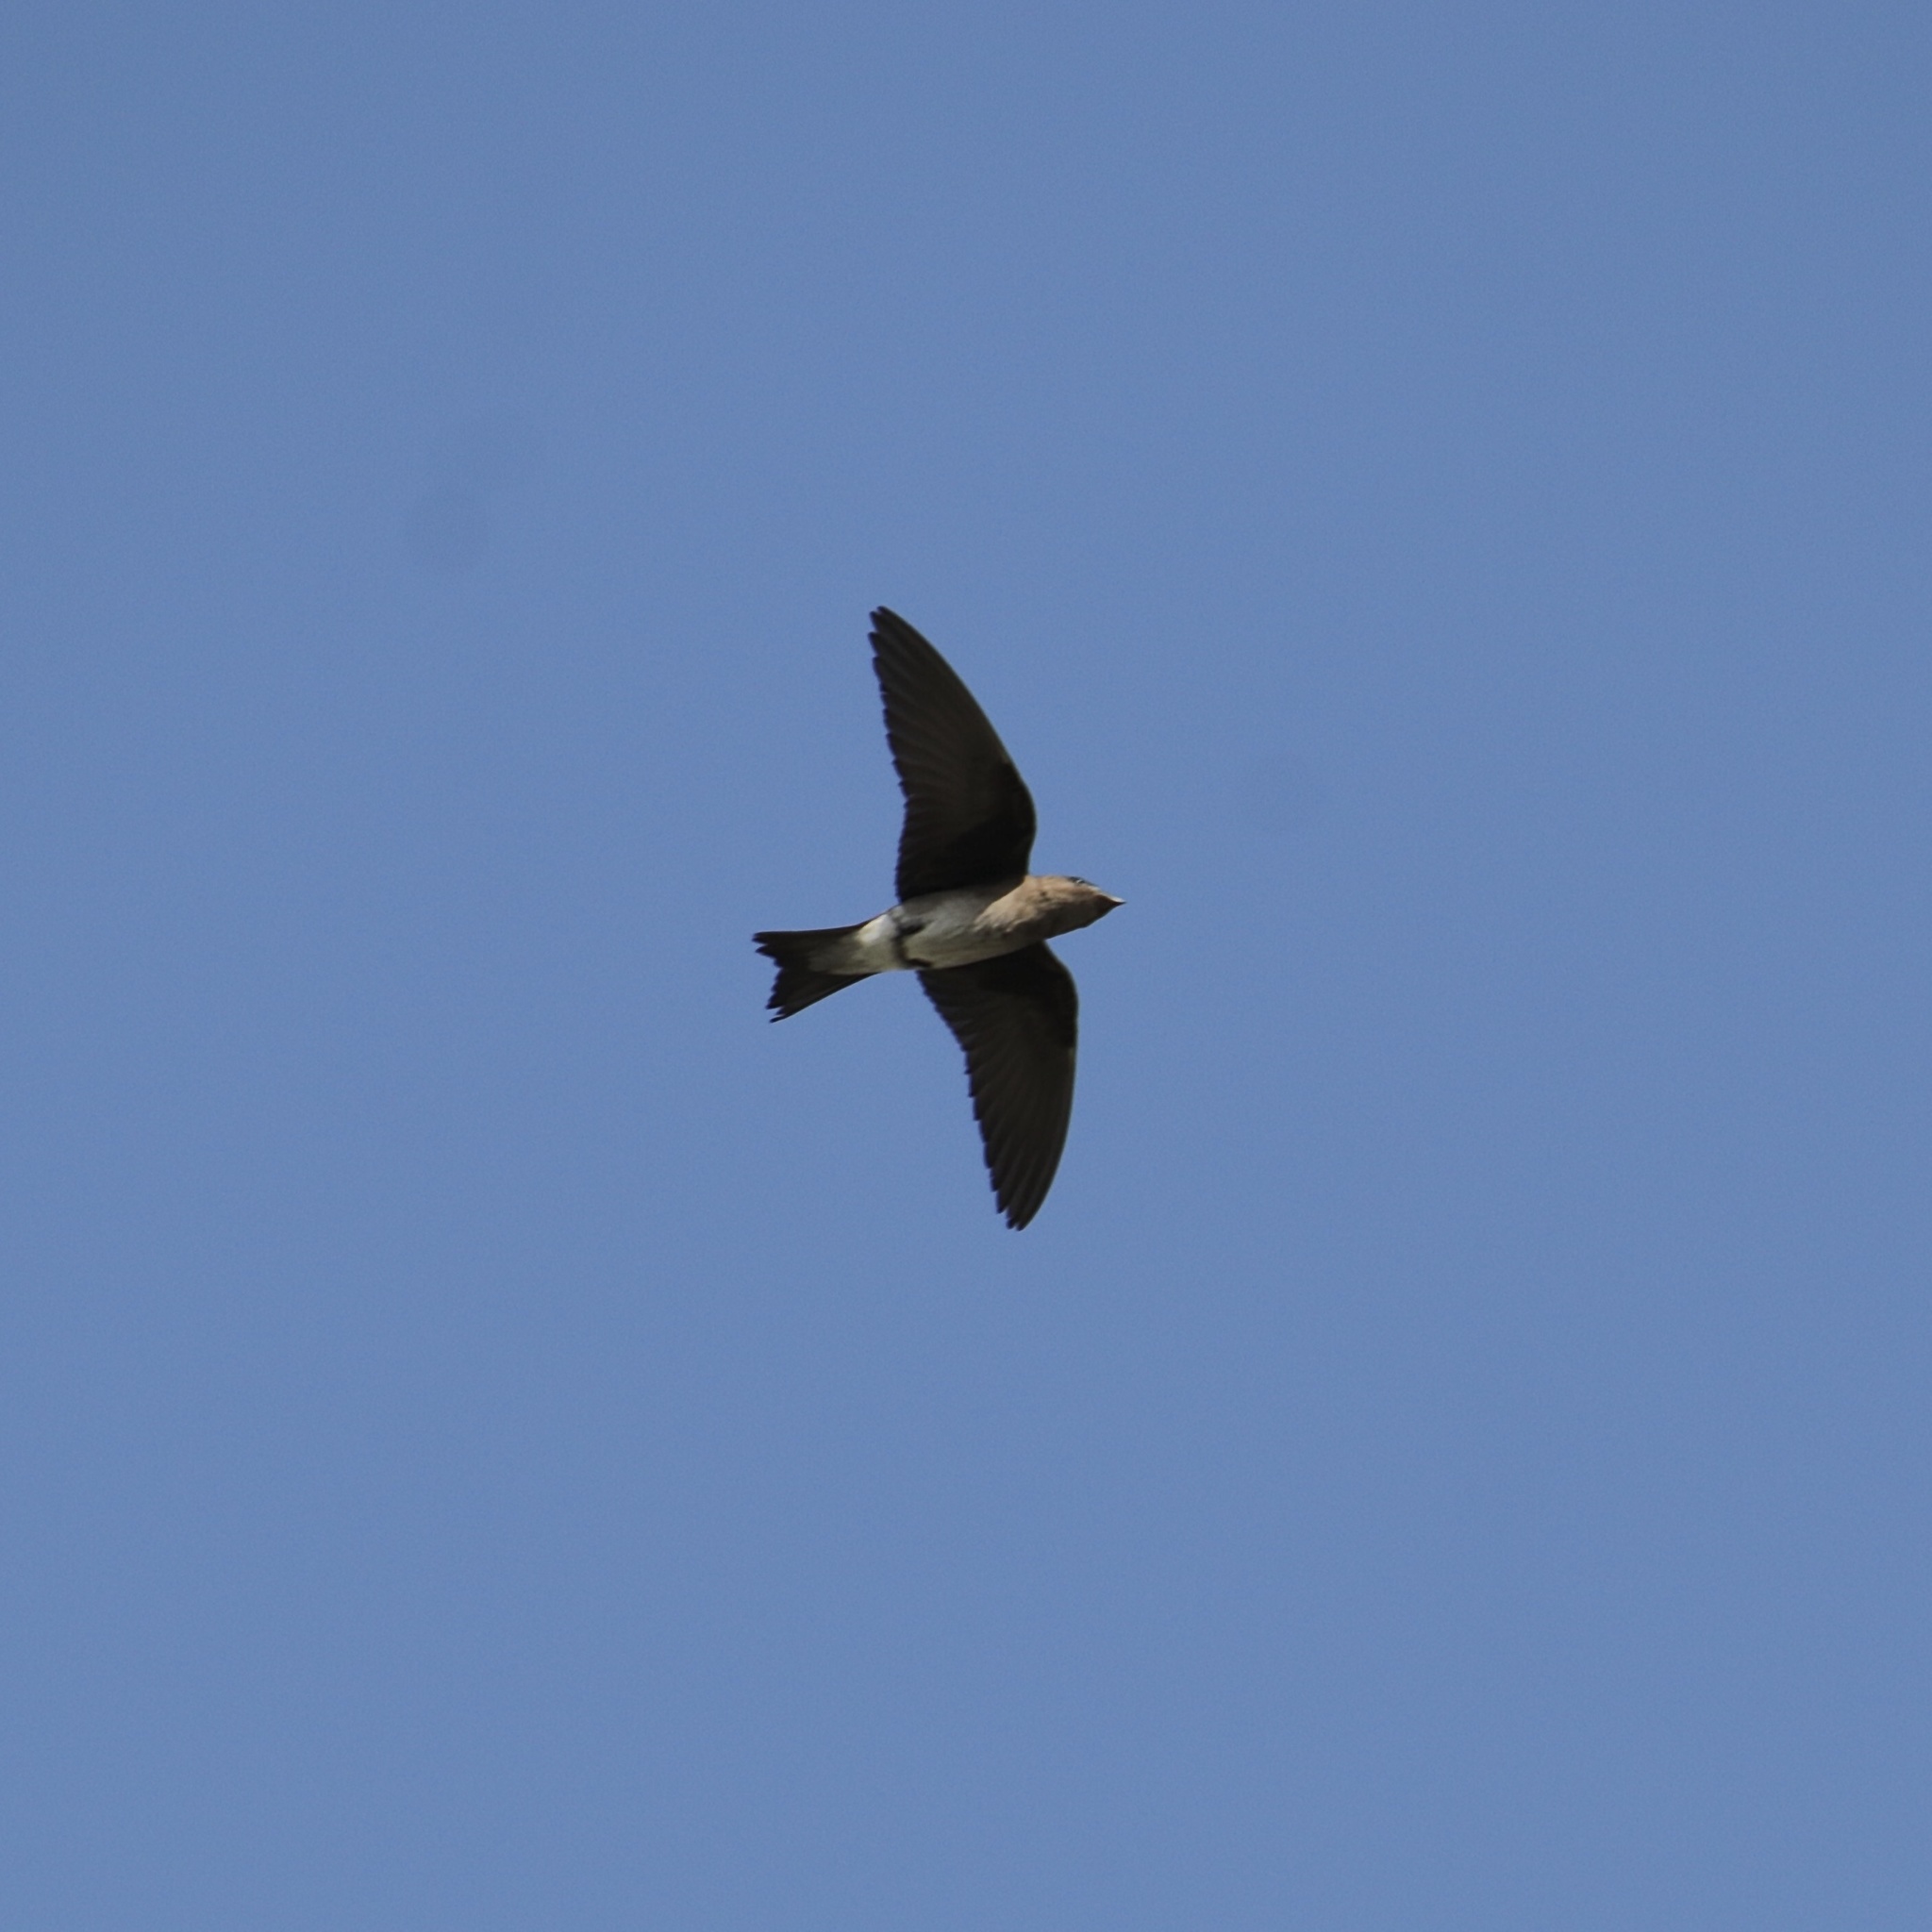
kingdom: Animalia
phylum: Chordata
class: Aves
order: Passeriformes
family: Hirundinidae
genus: Progne
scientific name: Progne chalybea
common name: Grey-breasted martin
